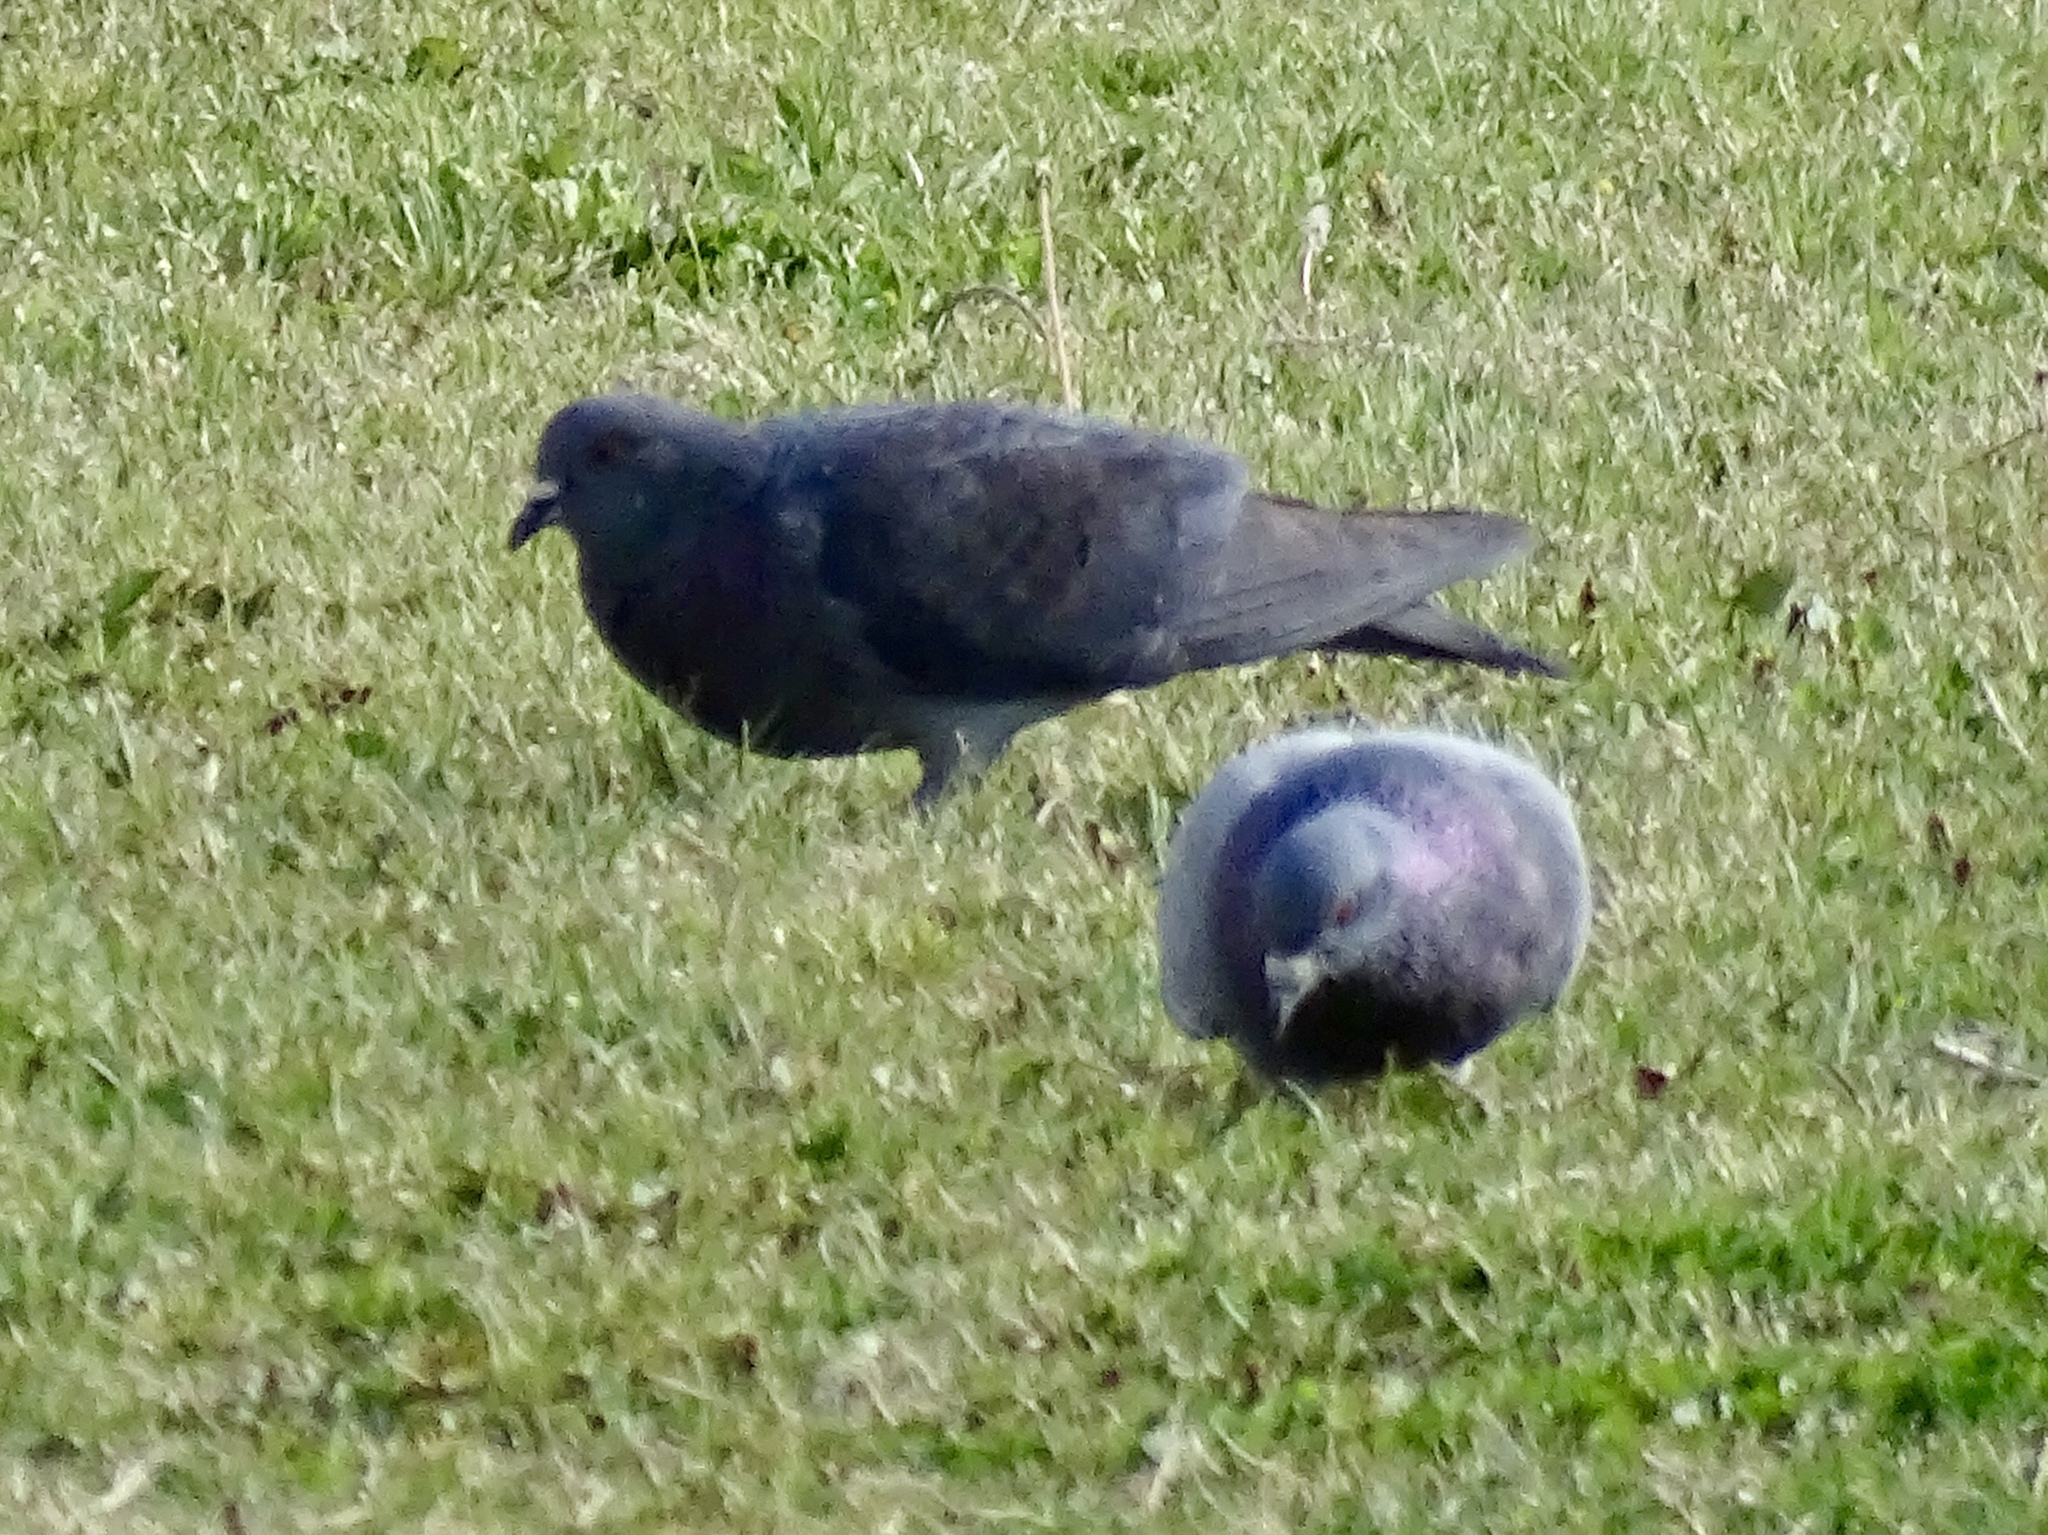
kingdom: Animalia
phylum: Chordata
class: Aves
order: Columbiformes
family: Columbidae
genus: Columba
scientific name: Columba livia
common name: Rock pigeon
